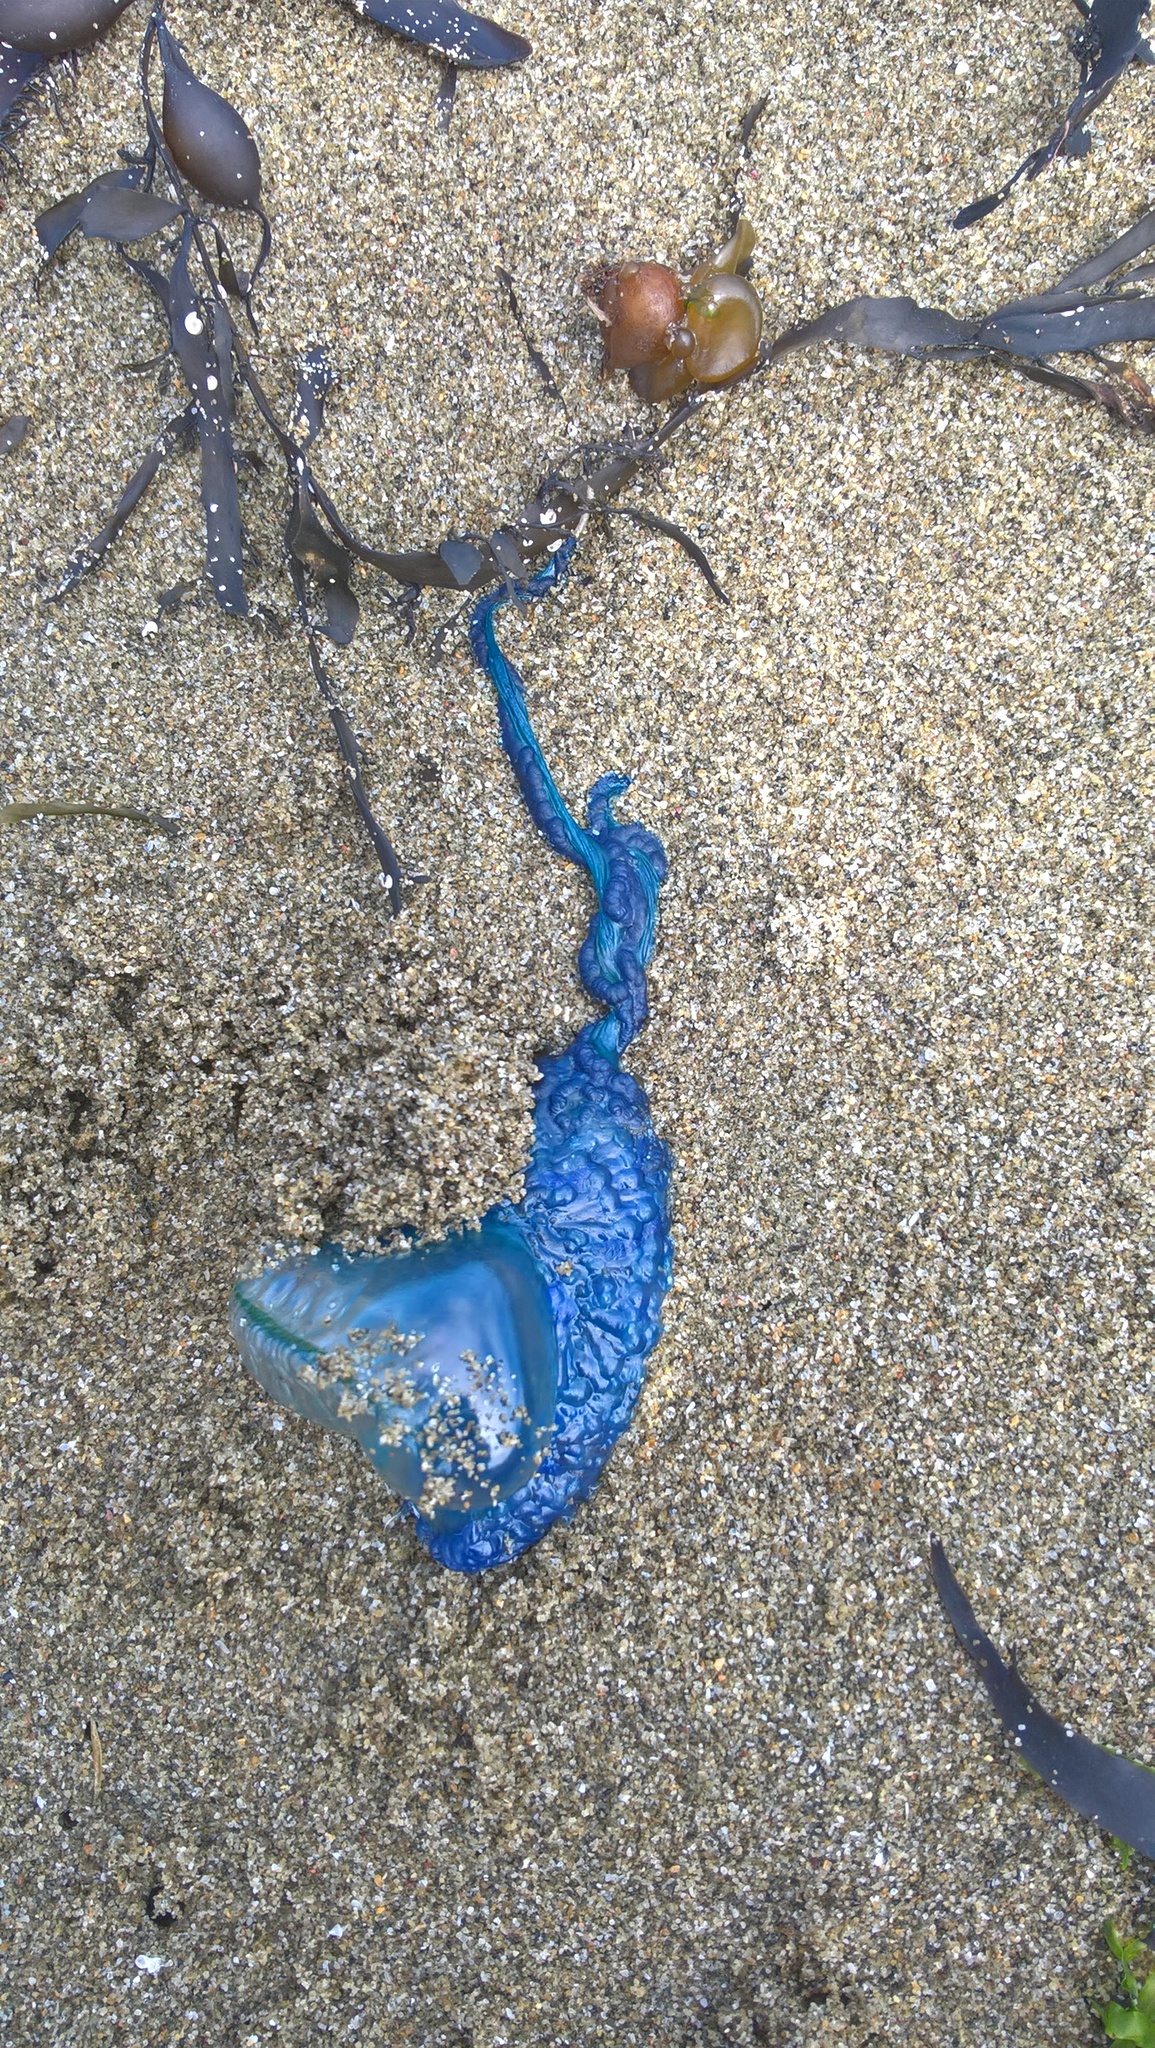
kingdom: Animalia
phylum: Cnidaria
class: Hydrozoa
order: Siphonophorae
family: Physaliidae
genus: Physalia
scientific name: Physalia physalis
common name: Portuguese man-of-war
